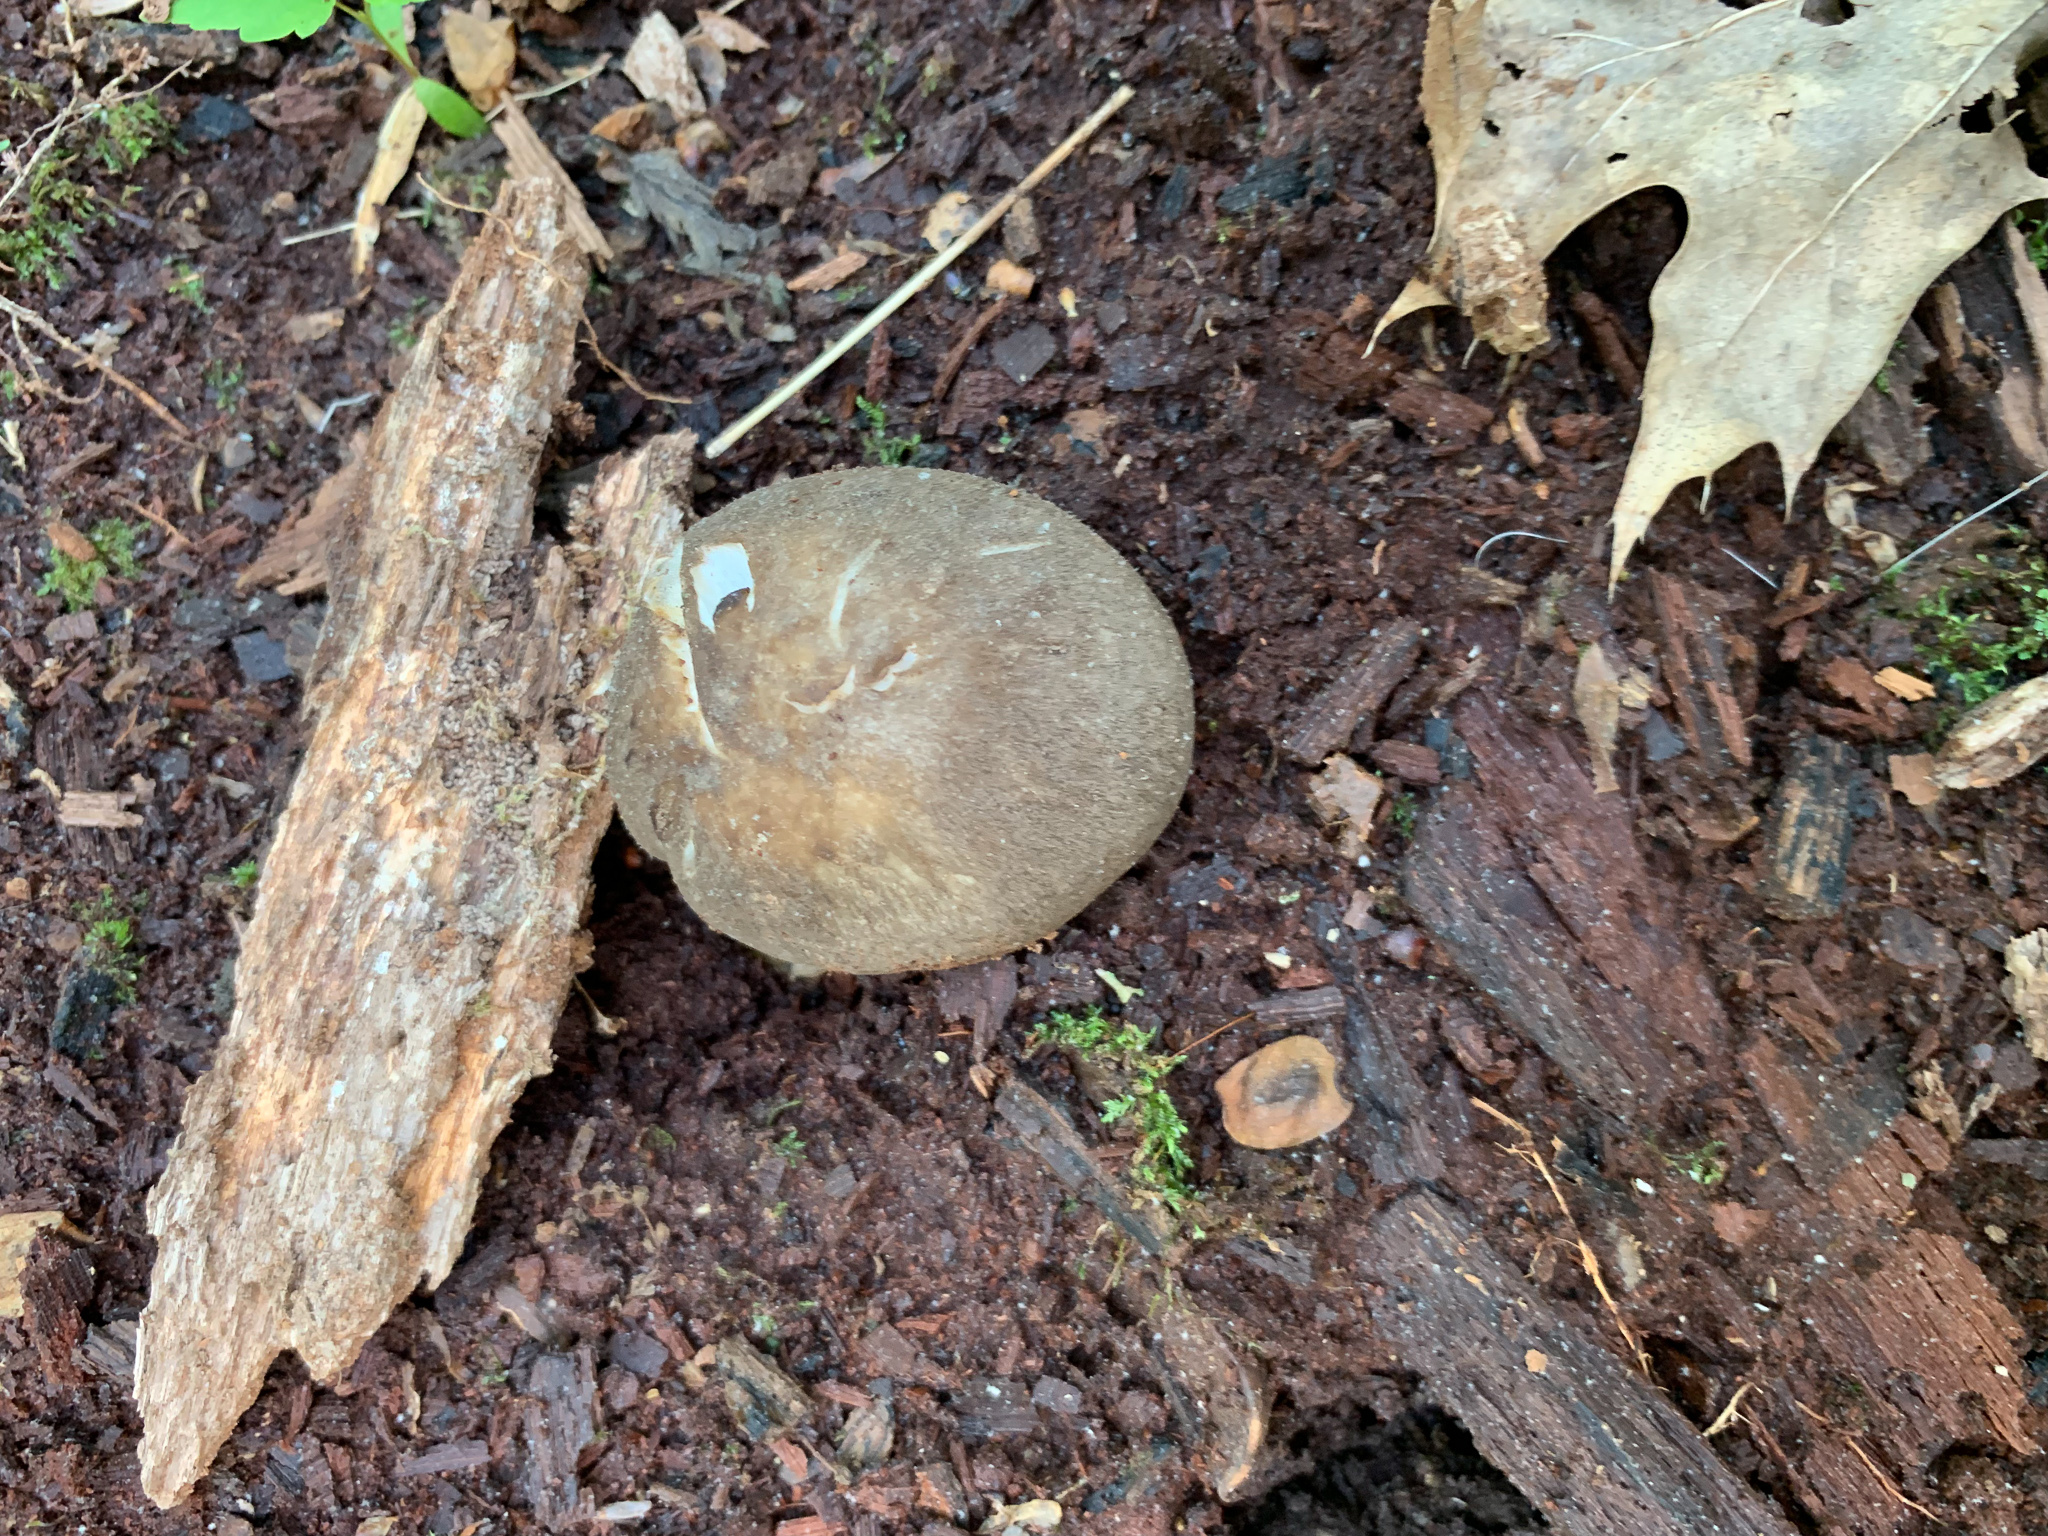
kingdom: Fungi
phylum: Basidiomycota
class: Agaricomycetes
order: Agaricales
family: Tricholomataceae
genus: Megacollybia
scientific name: Megacollybia rodmanii
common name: Eastern american platterful mushroom
